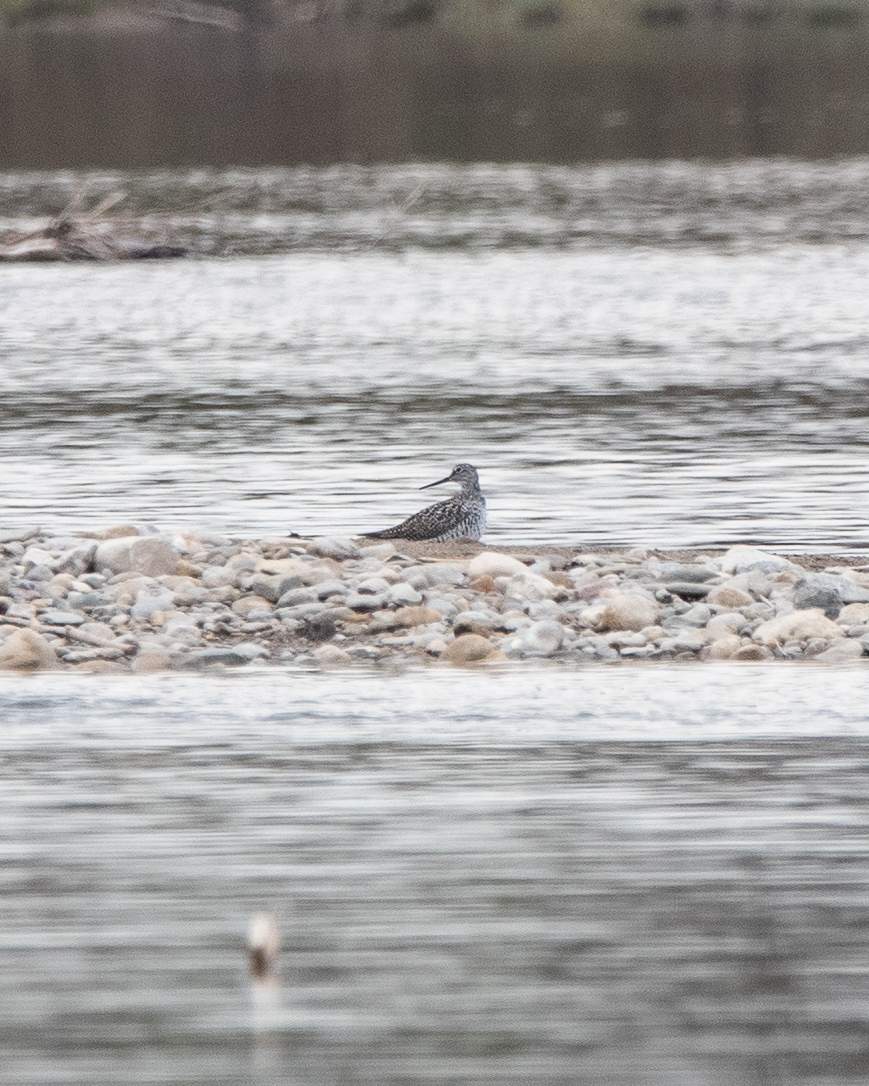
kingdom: Animalia
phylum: Chordata
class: Aves
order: Charadriiformes
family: Scolopacidae
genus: Tringa
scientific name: Tringa melanoleuca
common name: Greater yellowlegs
